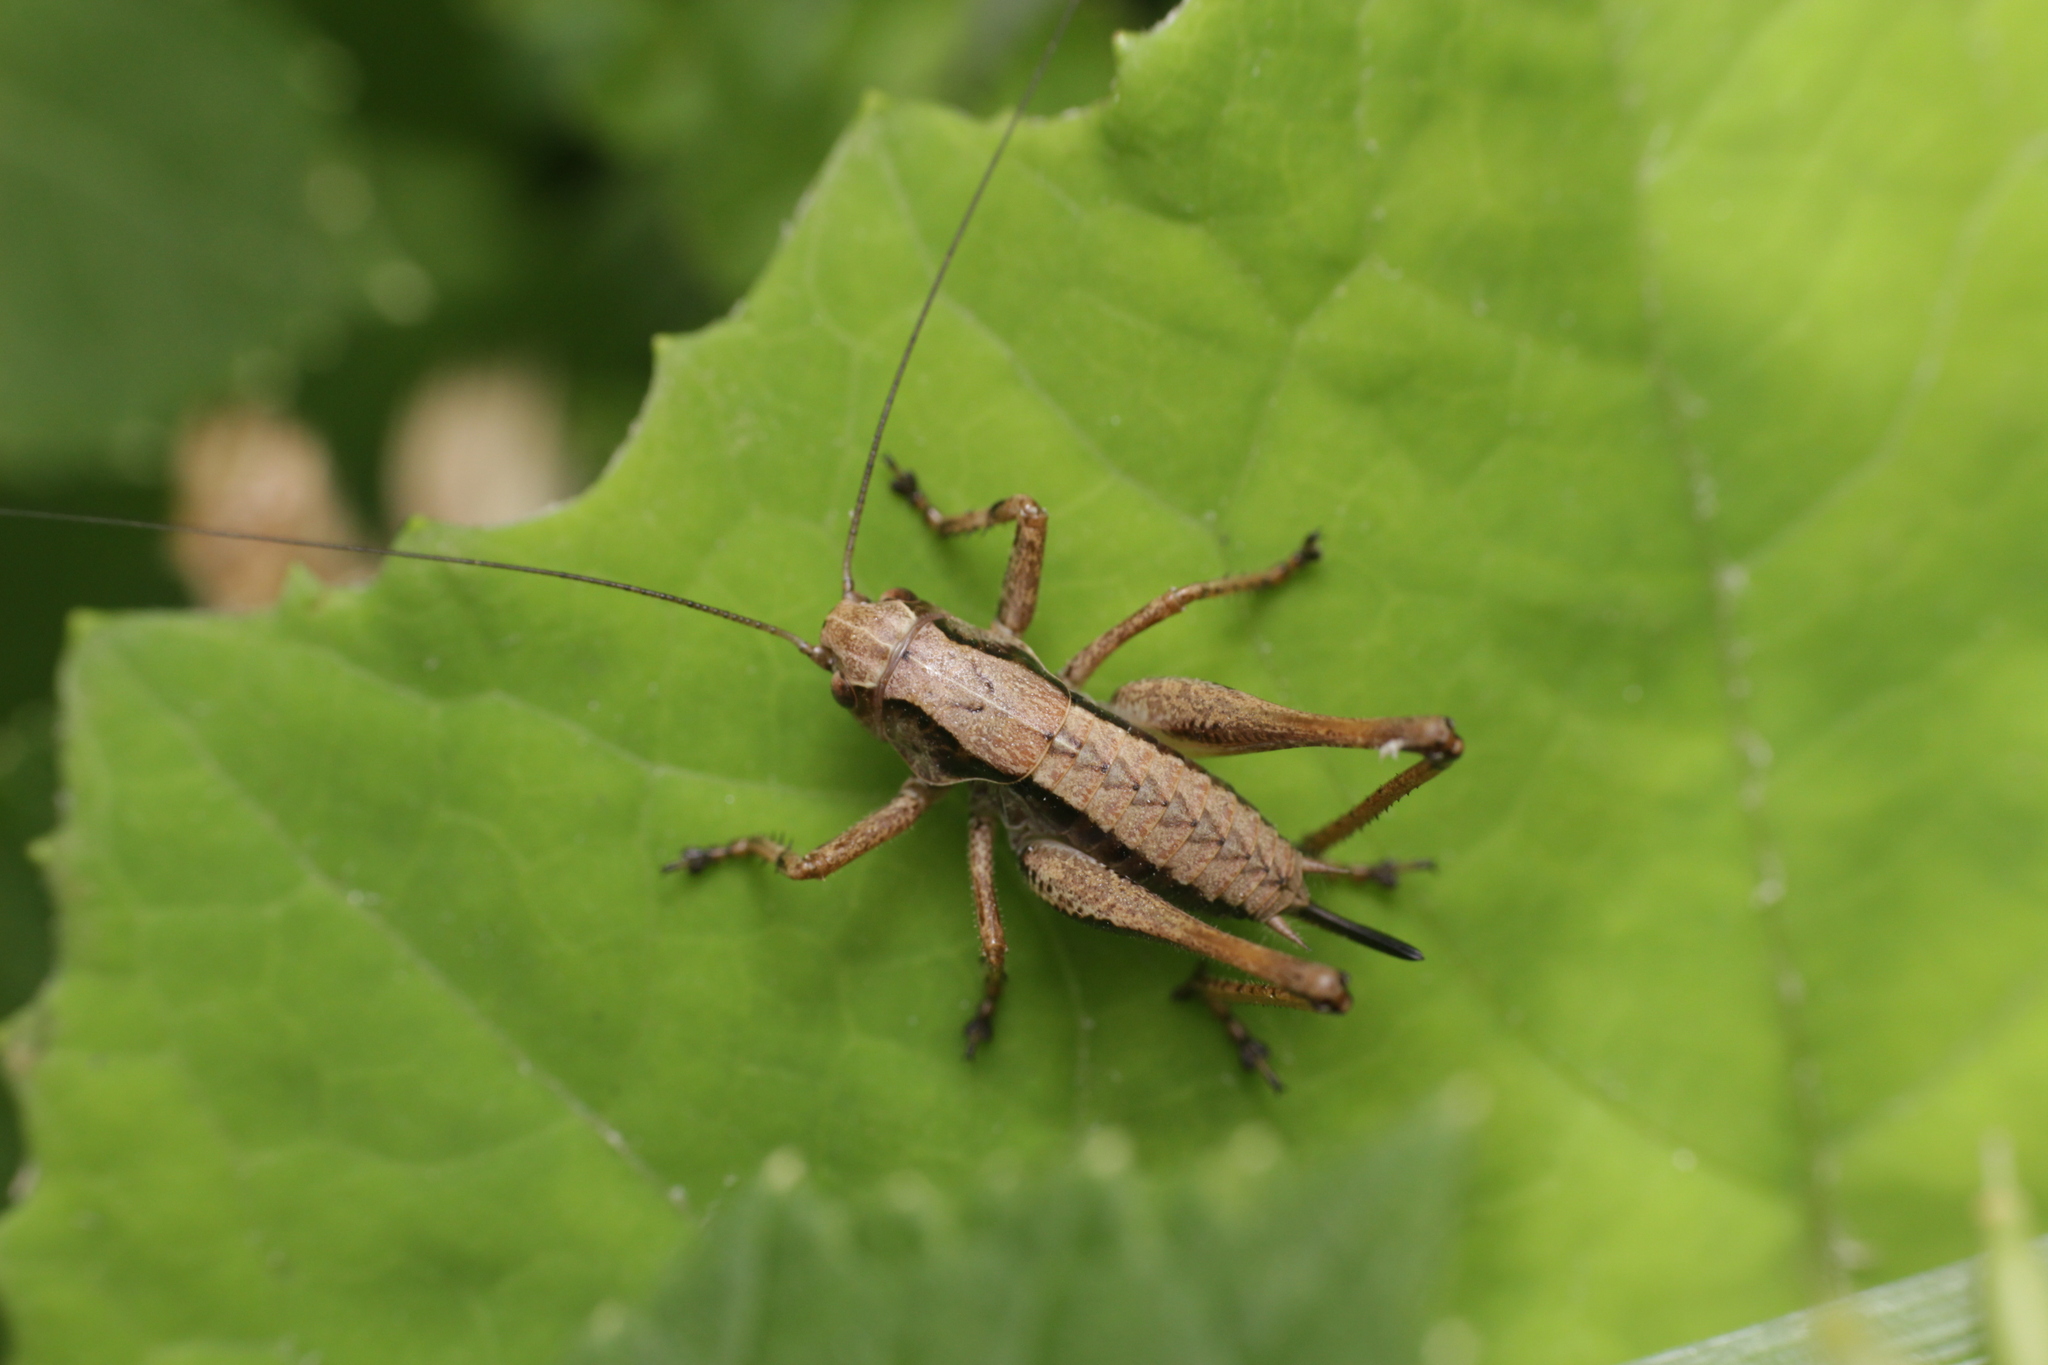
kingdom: Animalia
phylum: Arthropoda
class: Insecta
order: Orthoptera
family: Tettigoniidae
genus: Pholidoptera
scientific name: Pholidoptera griseoaptera
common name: Dark bush-cricket
